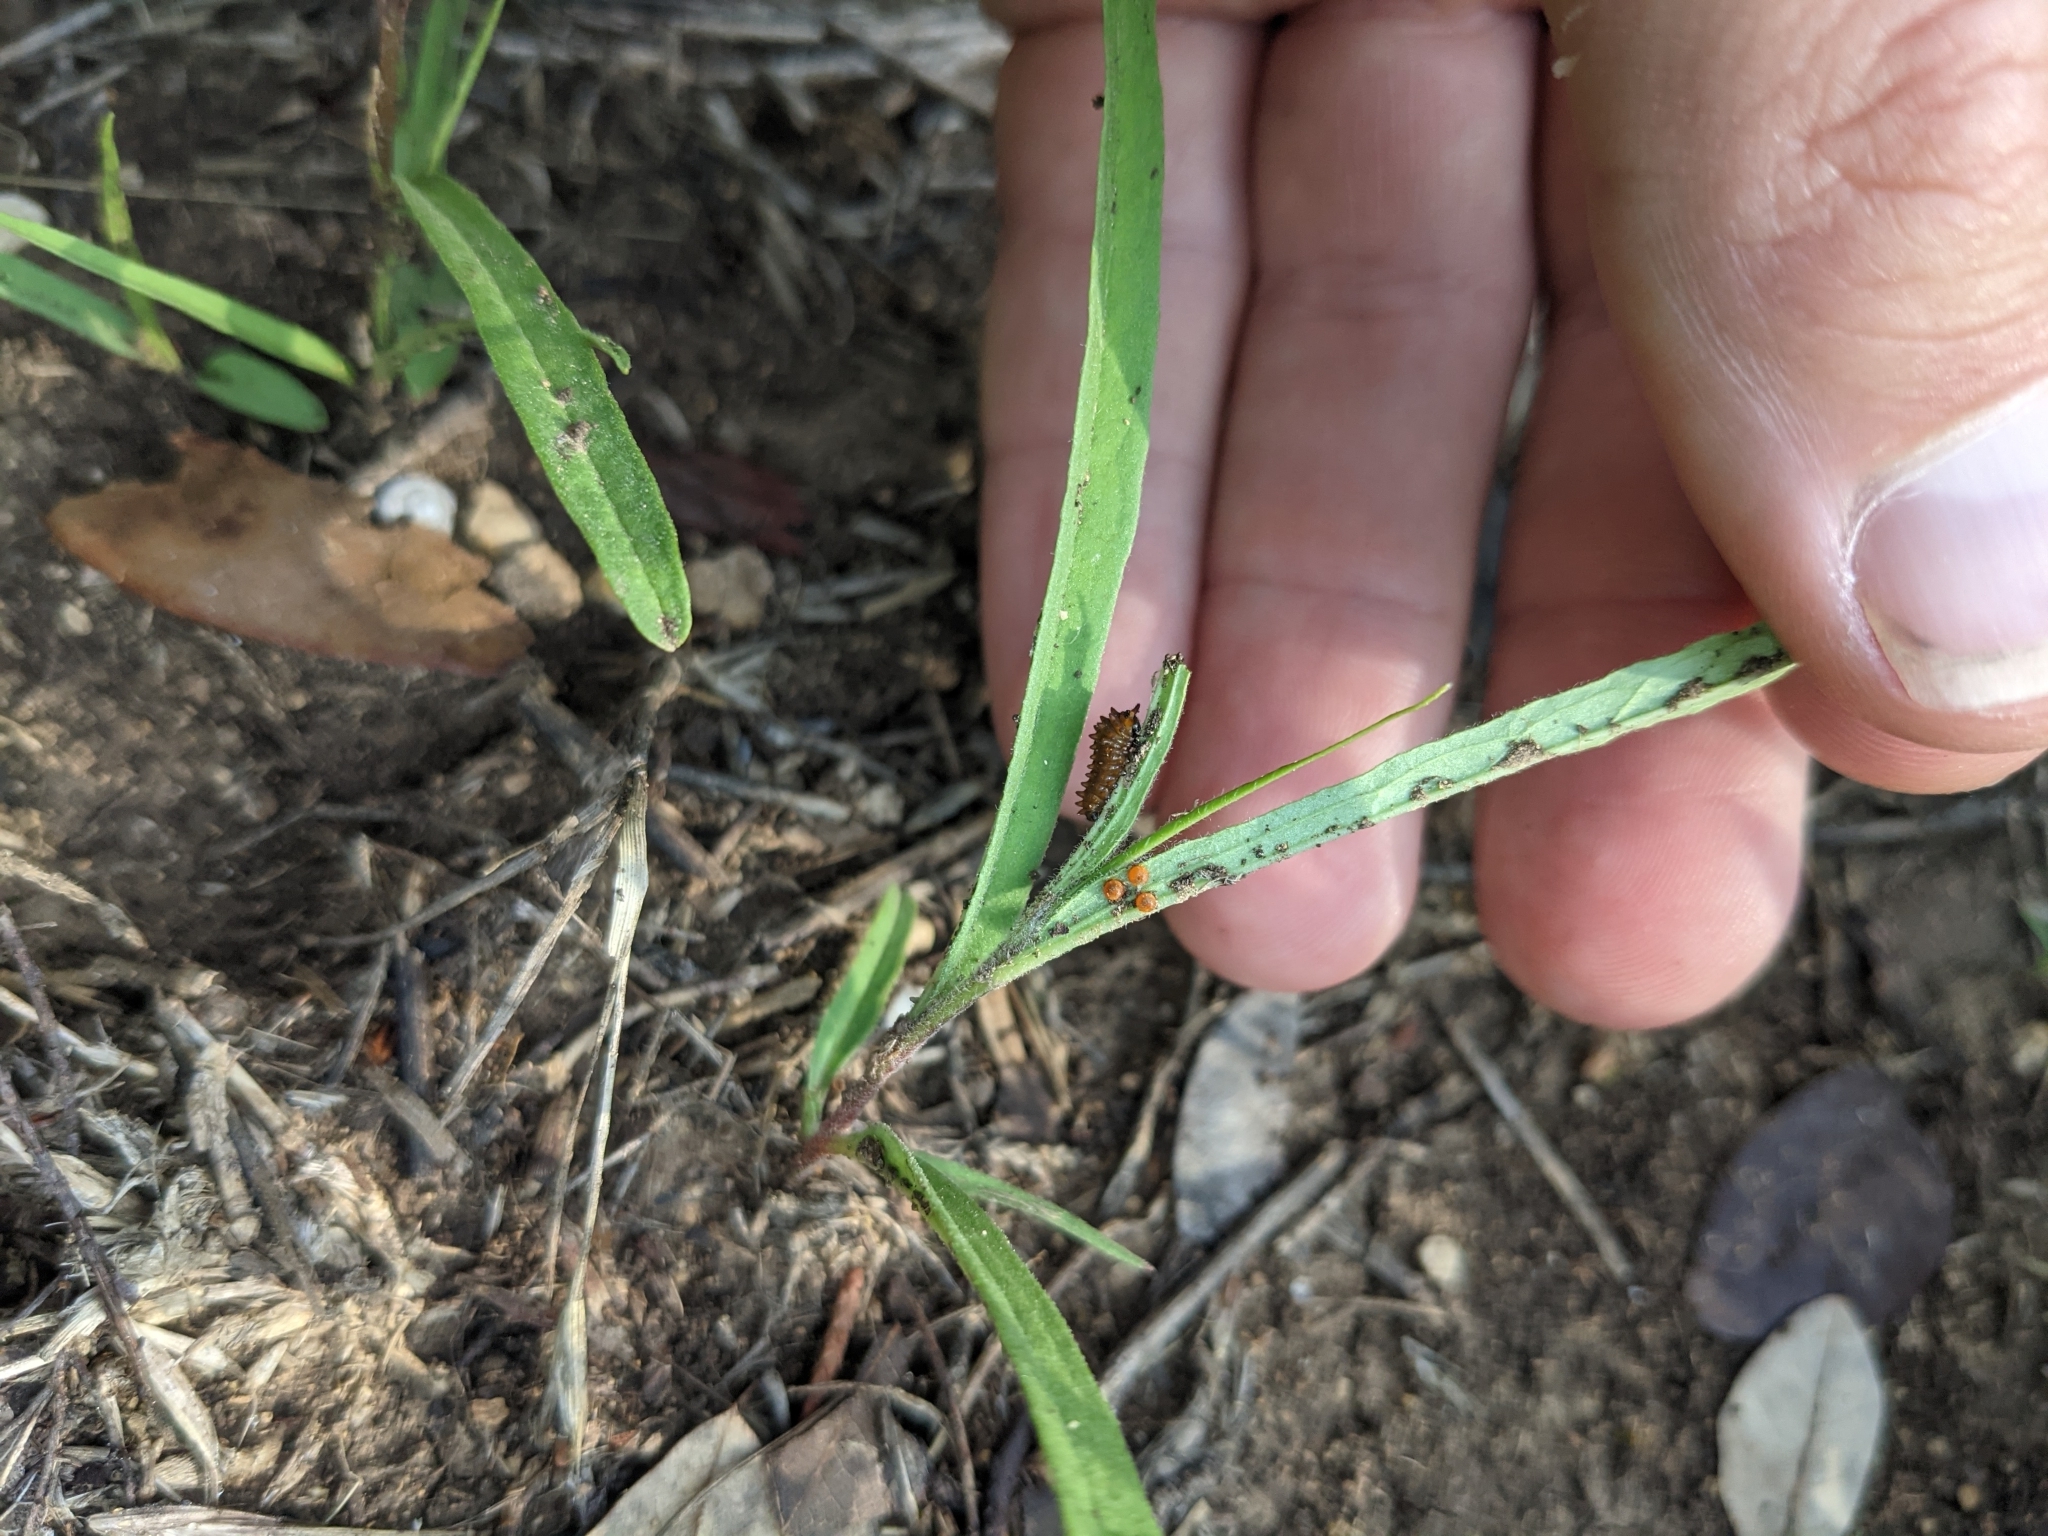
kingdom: Animalia
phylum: Arthropoda
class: Insecta
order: Lepidoptera
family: Papilionidae
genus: Battus
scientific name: Battus philenor
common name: Pipevine swallowtail
